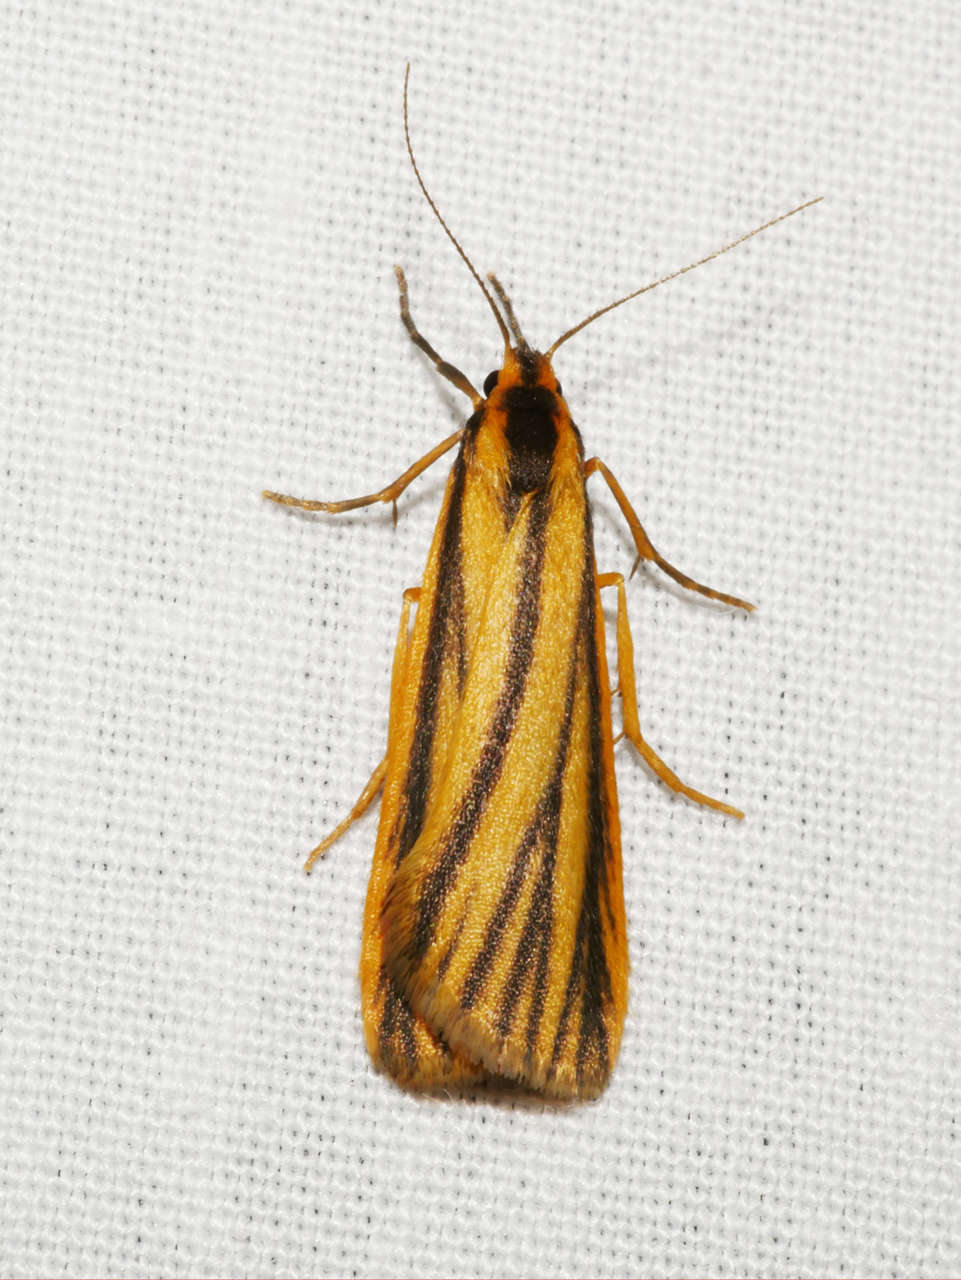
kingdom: Animalia
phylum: Arthropoda
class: Insecta
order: Lepidoptera
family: Erebidae
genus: Phaeophlebosia
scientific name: Phaeophlebosia furcifera
